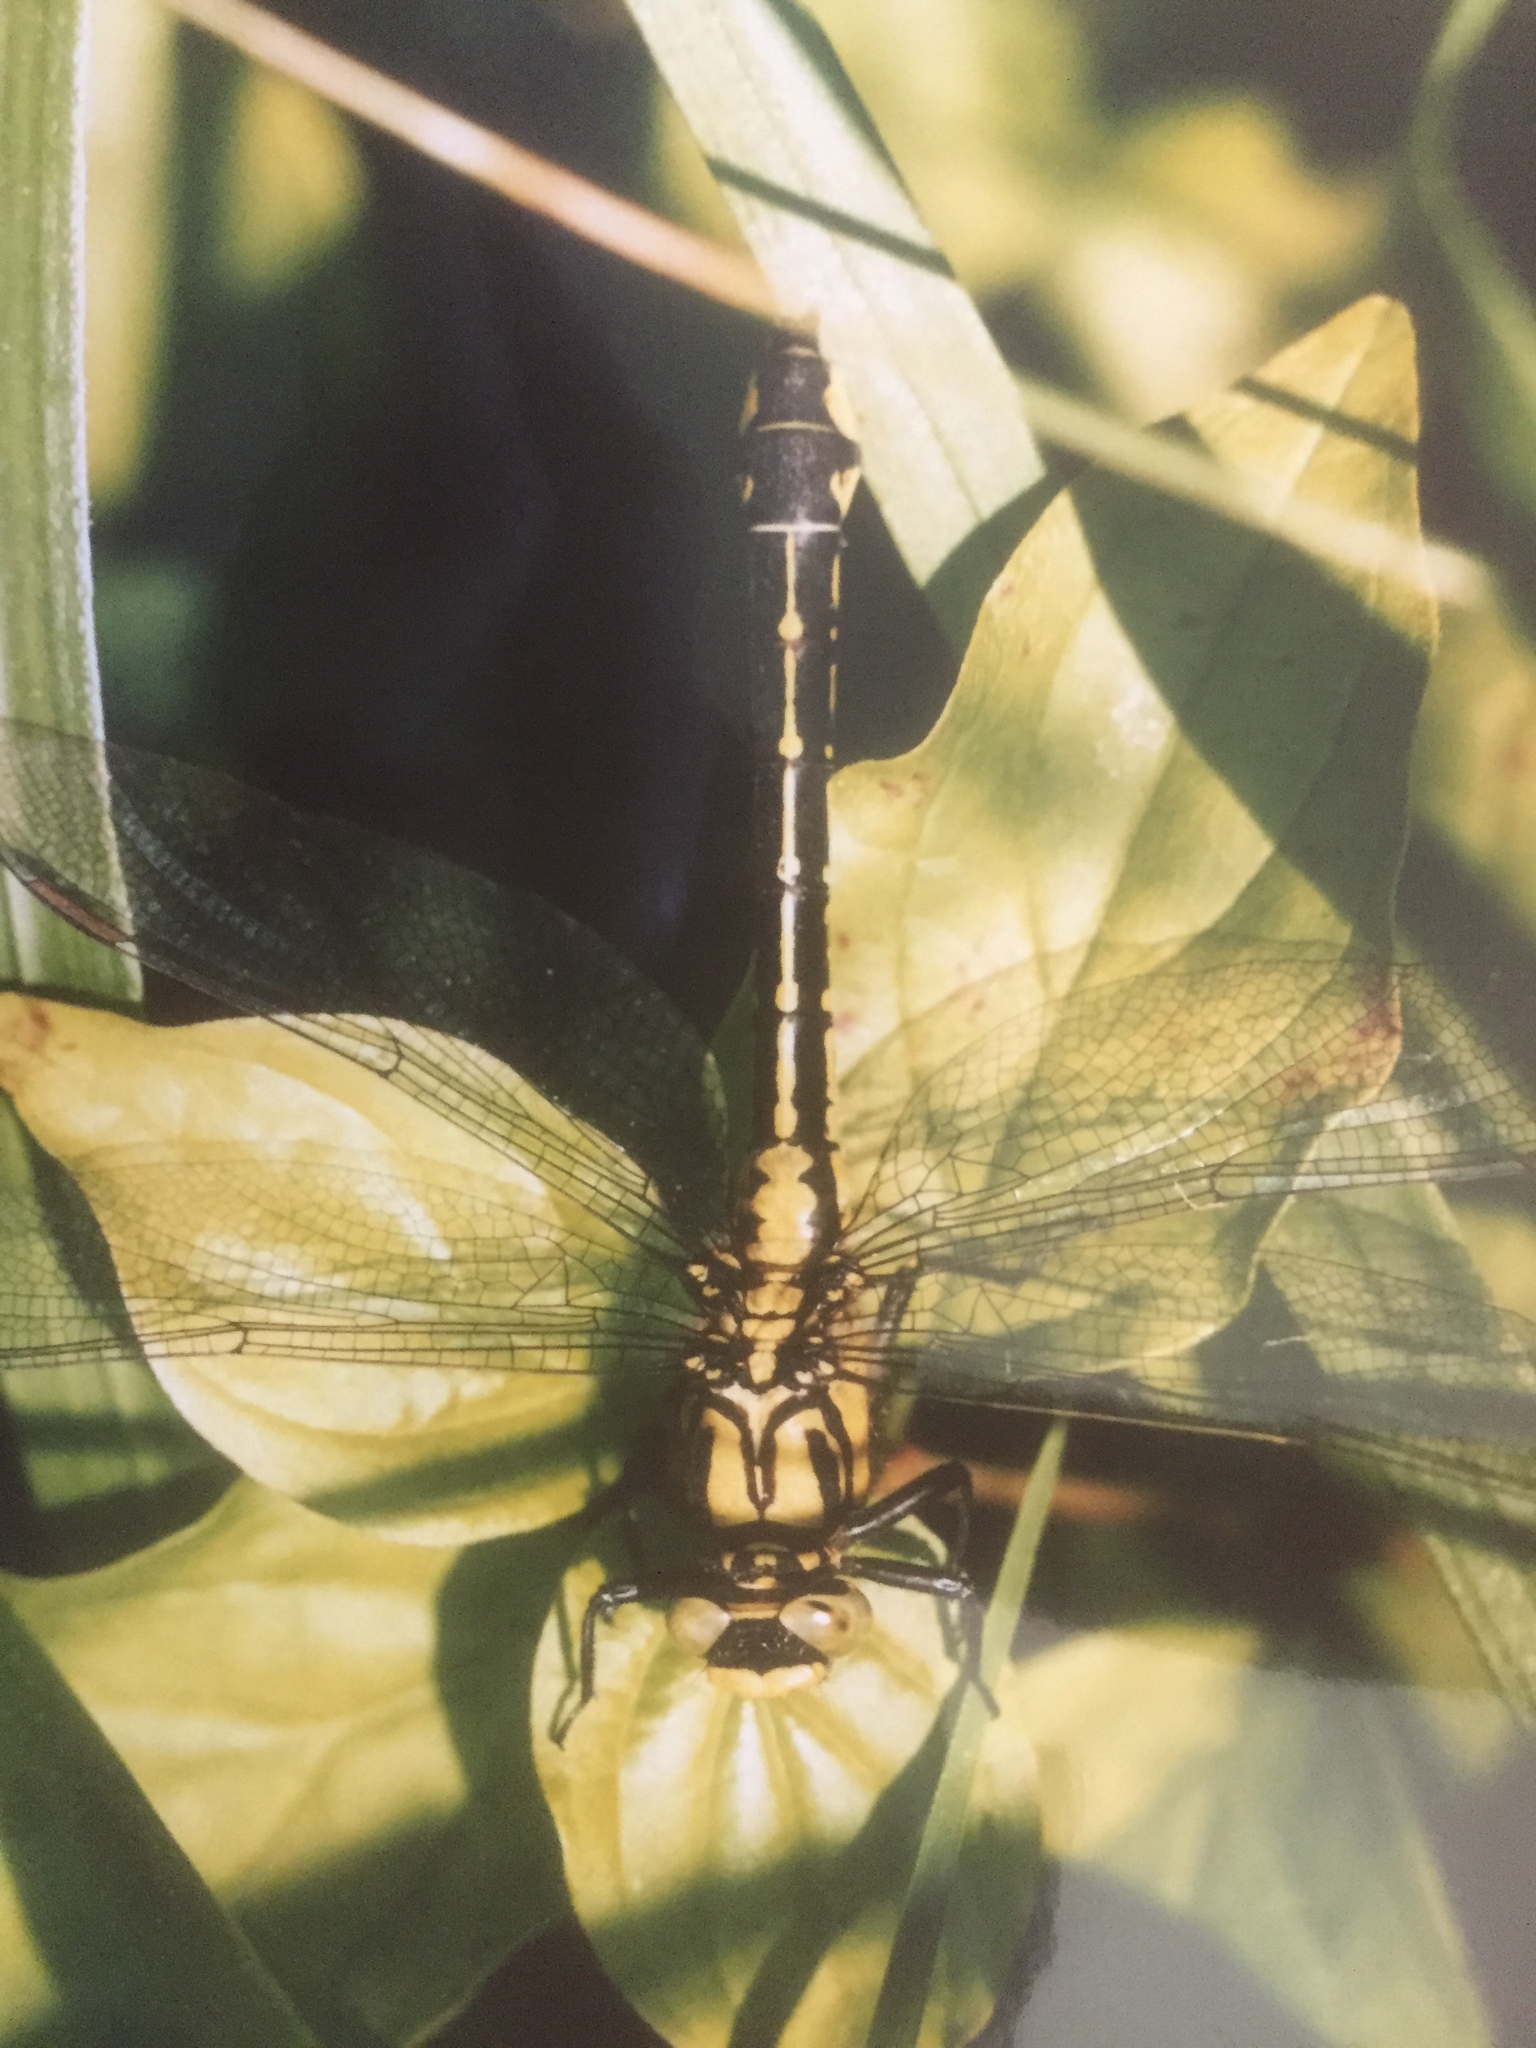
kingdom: Animalia
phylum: Arthropoda
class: Insecta
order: Odonata
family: Gomphidae
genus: Gomphus
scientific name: Gomphus vulgatissimus
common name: Club-tailed dragonfly
